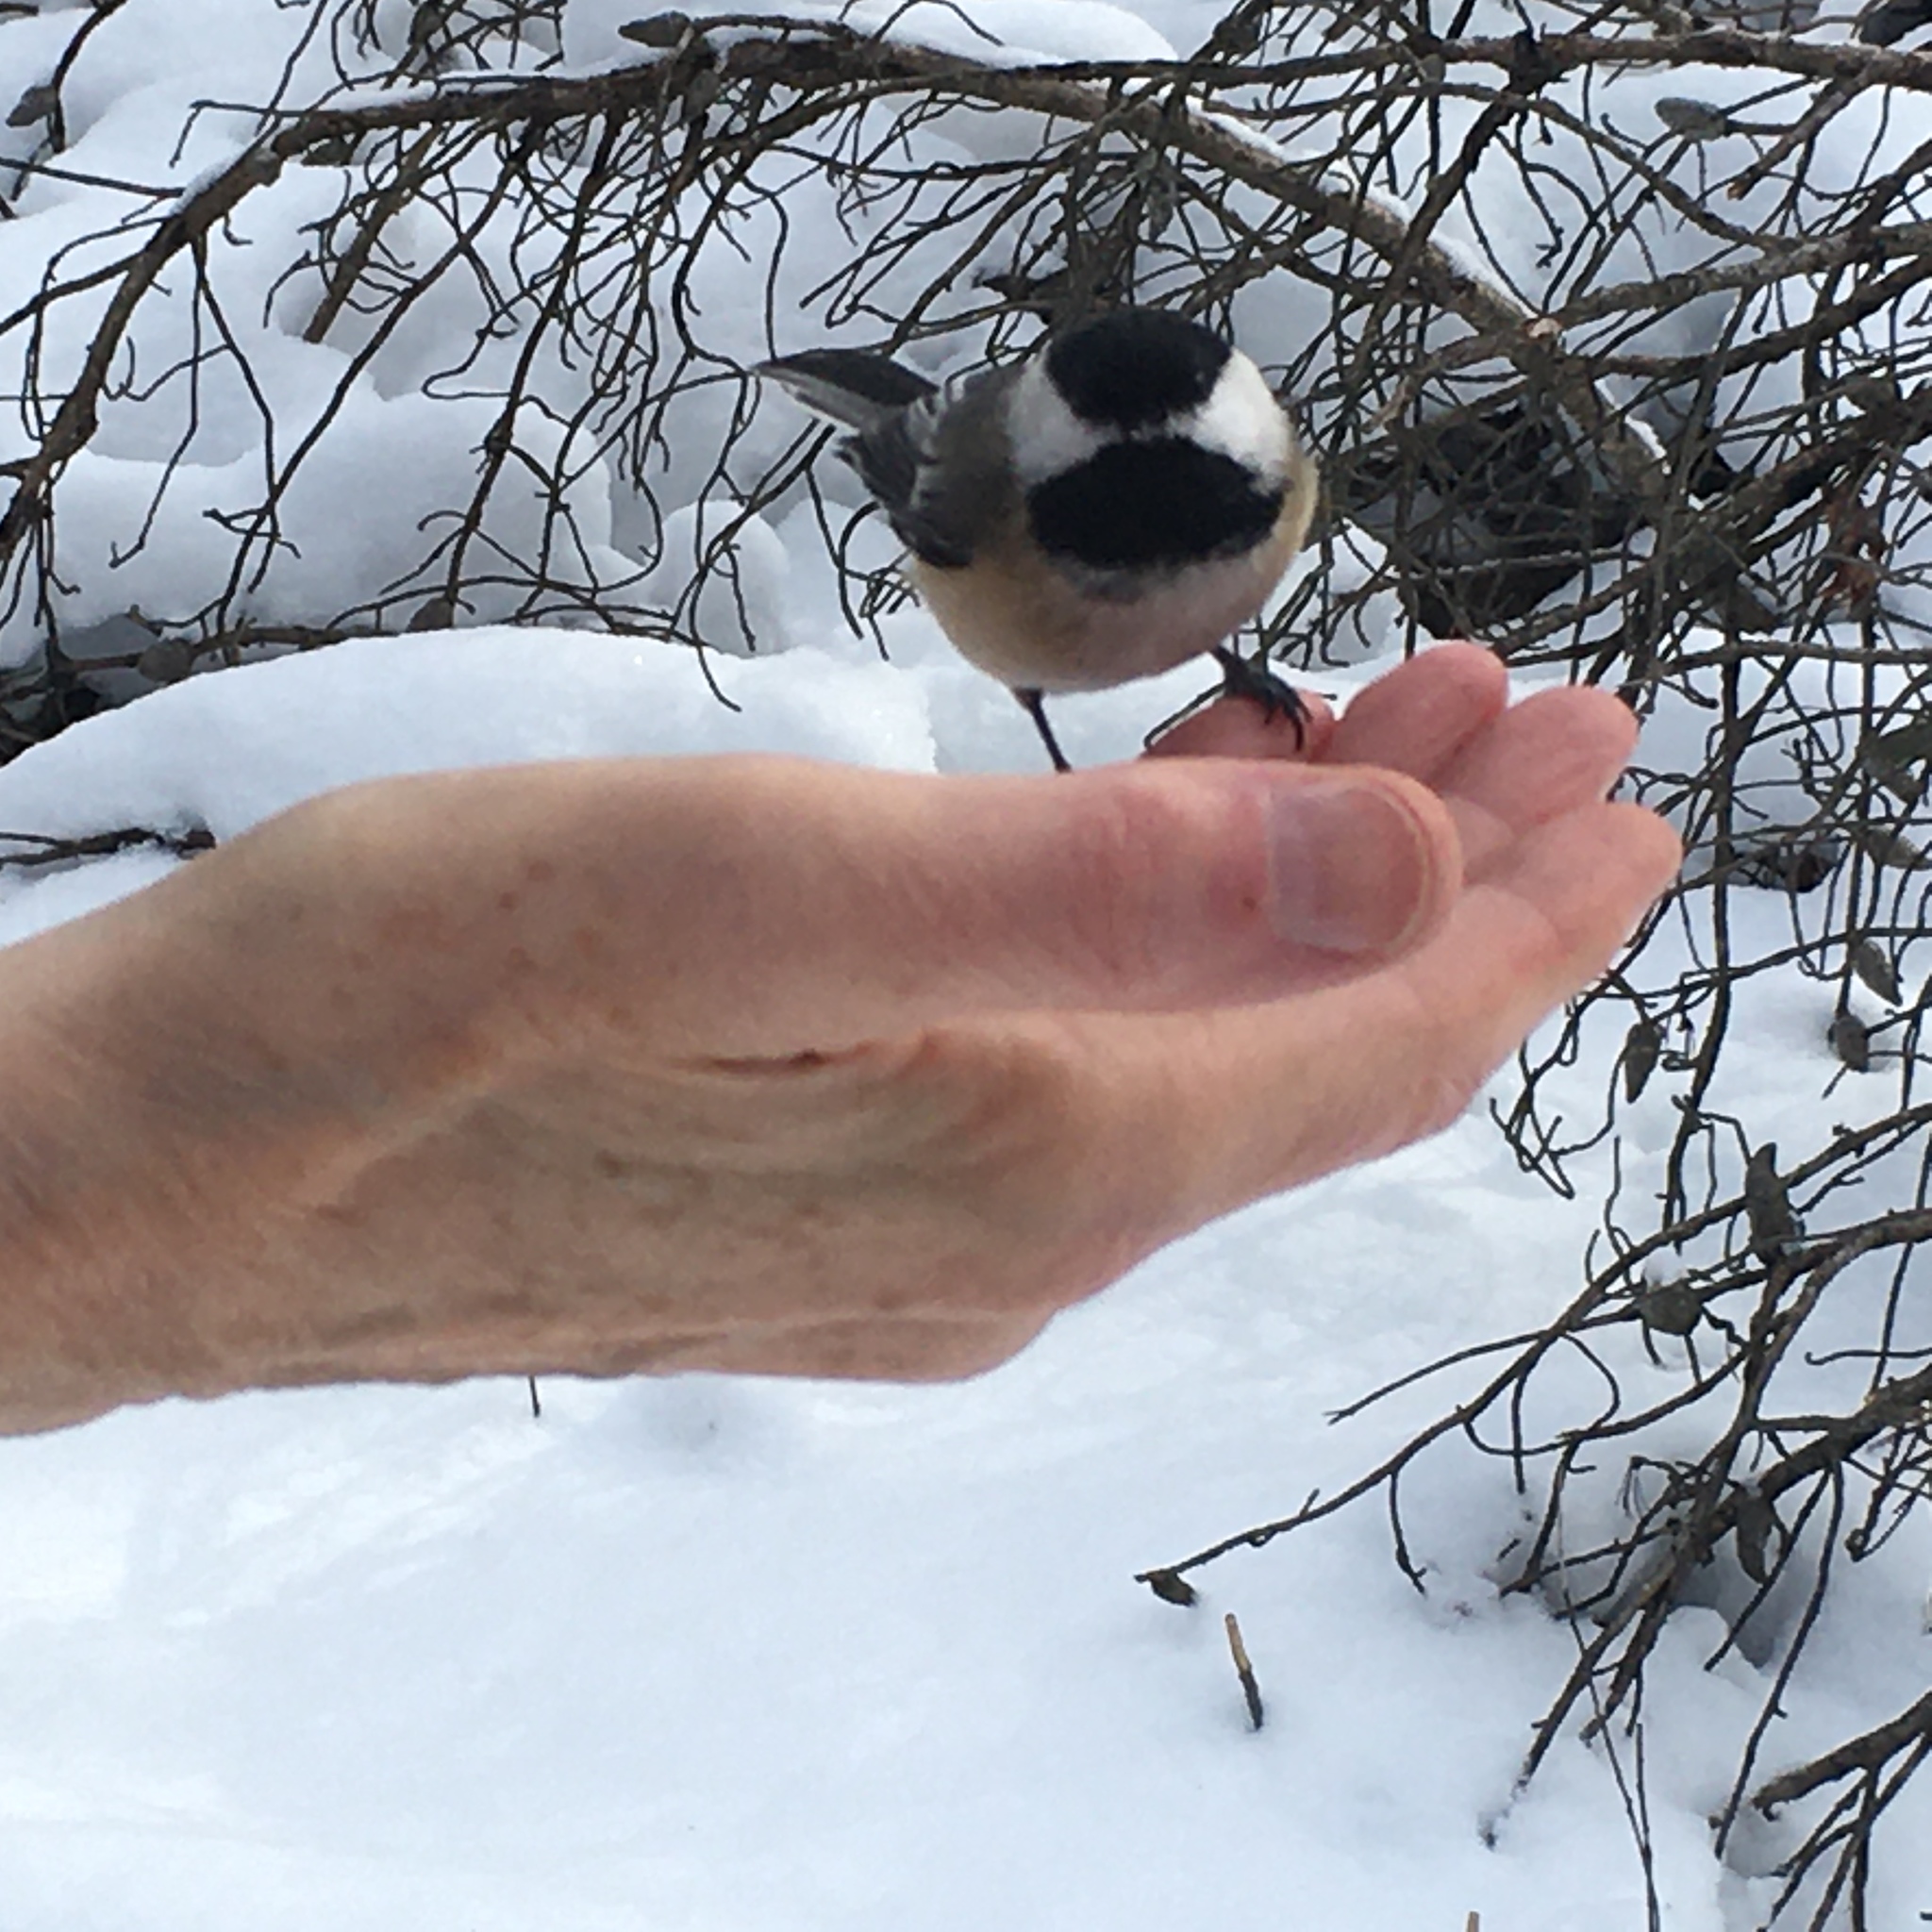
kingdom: Animalia
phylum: Chordata
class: Aves
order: Passeriformes
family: Paridae
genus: Poecile
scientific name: Poecile atricapillus
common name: Black-capped chickadee
